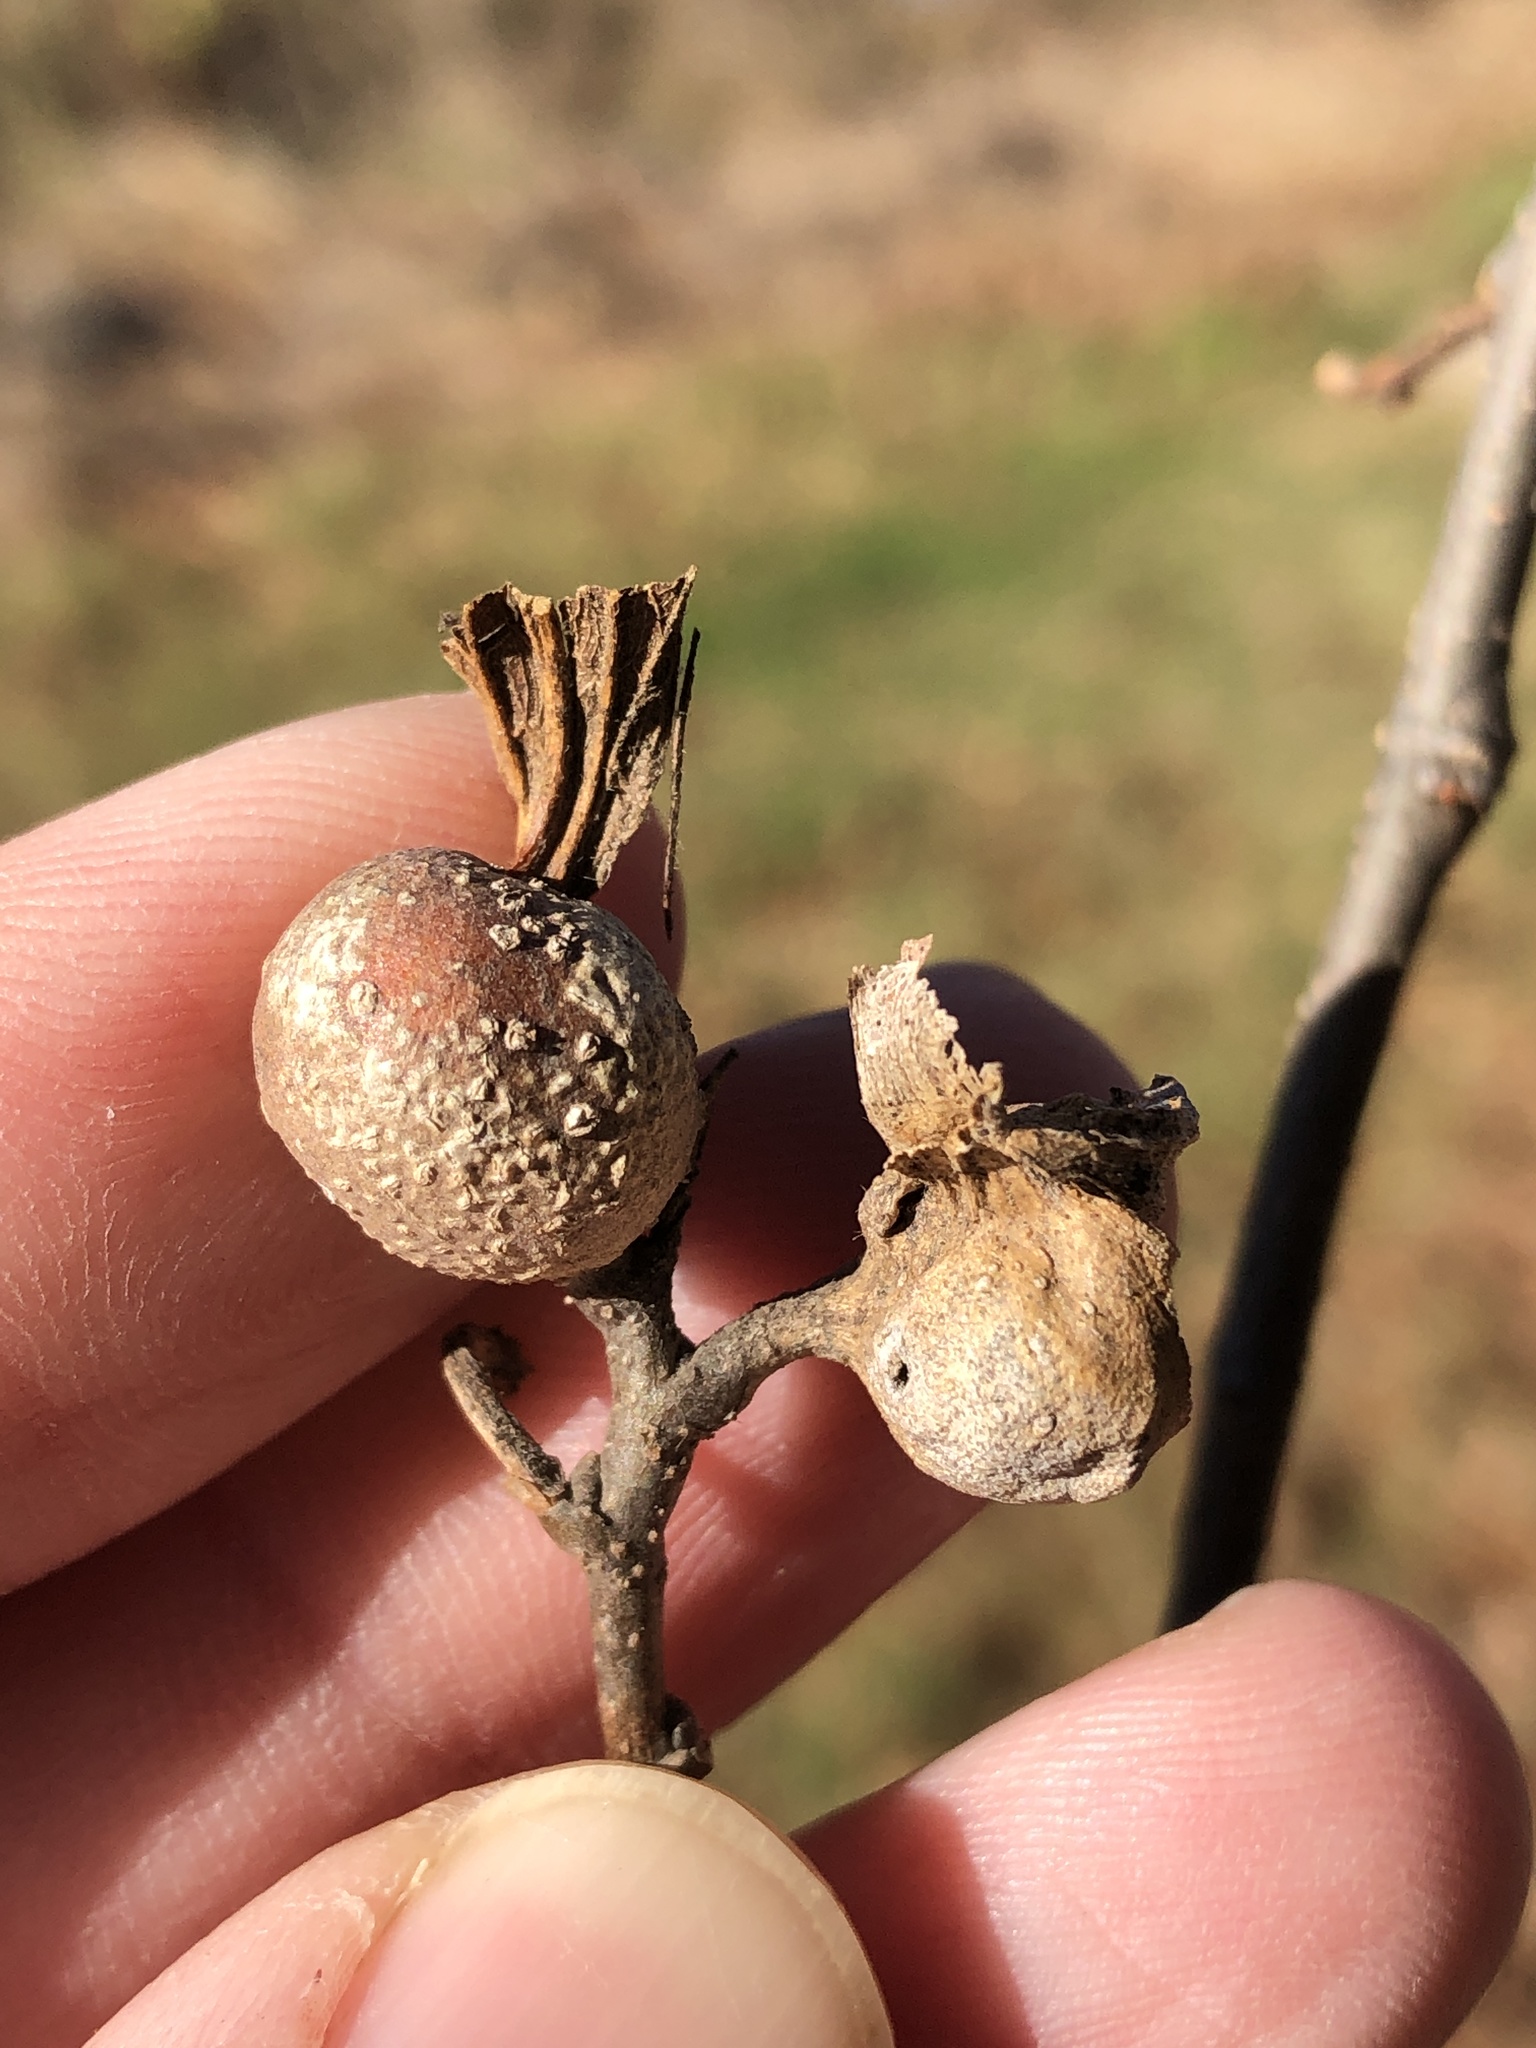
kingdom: Animalia
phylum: Arthropoda
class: Insecta
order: Hemiptera
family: Aphalaridae
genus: Pachypsylla
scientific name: Pachypsylla venusta
